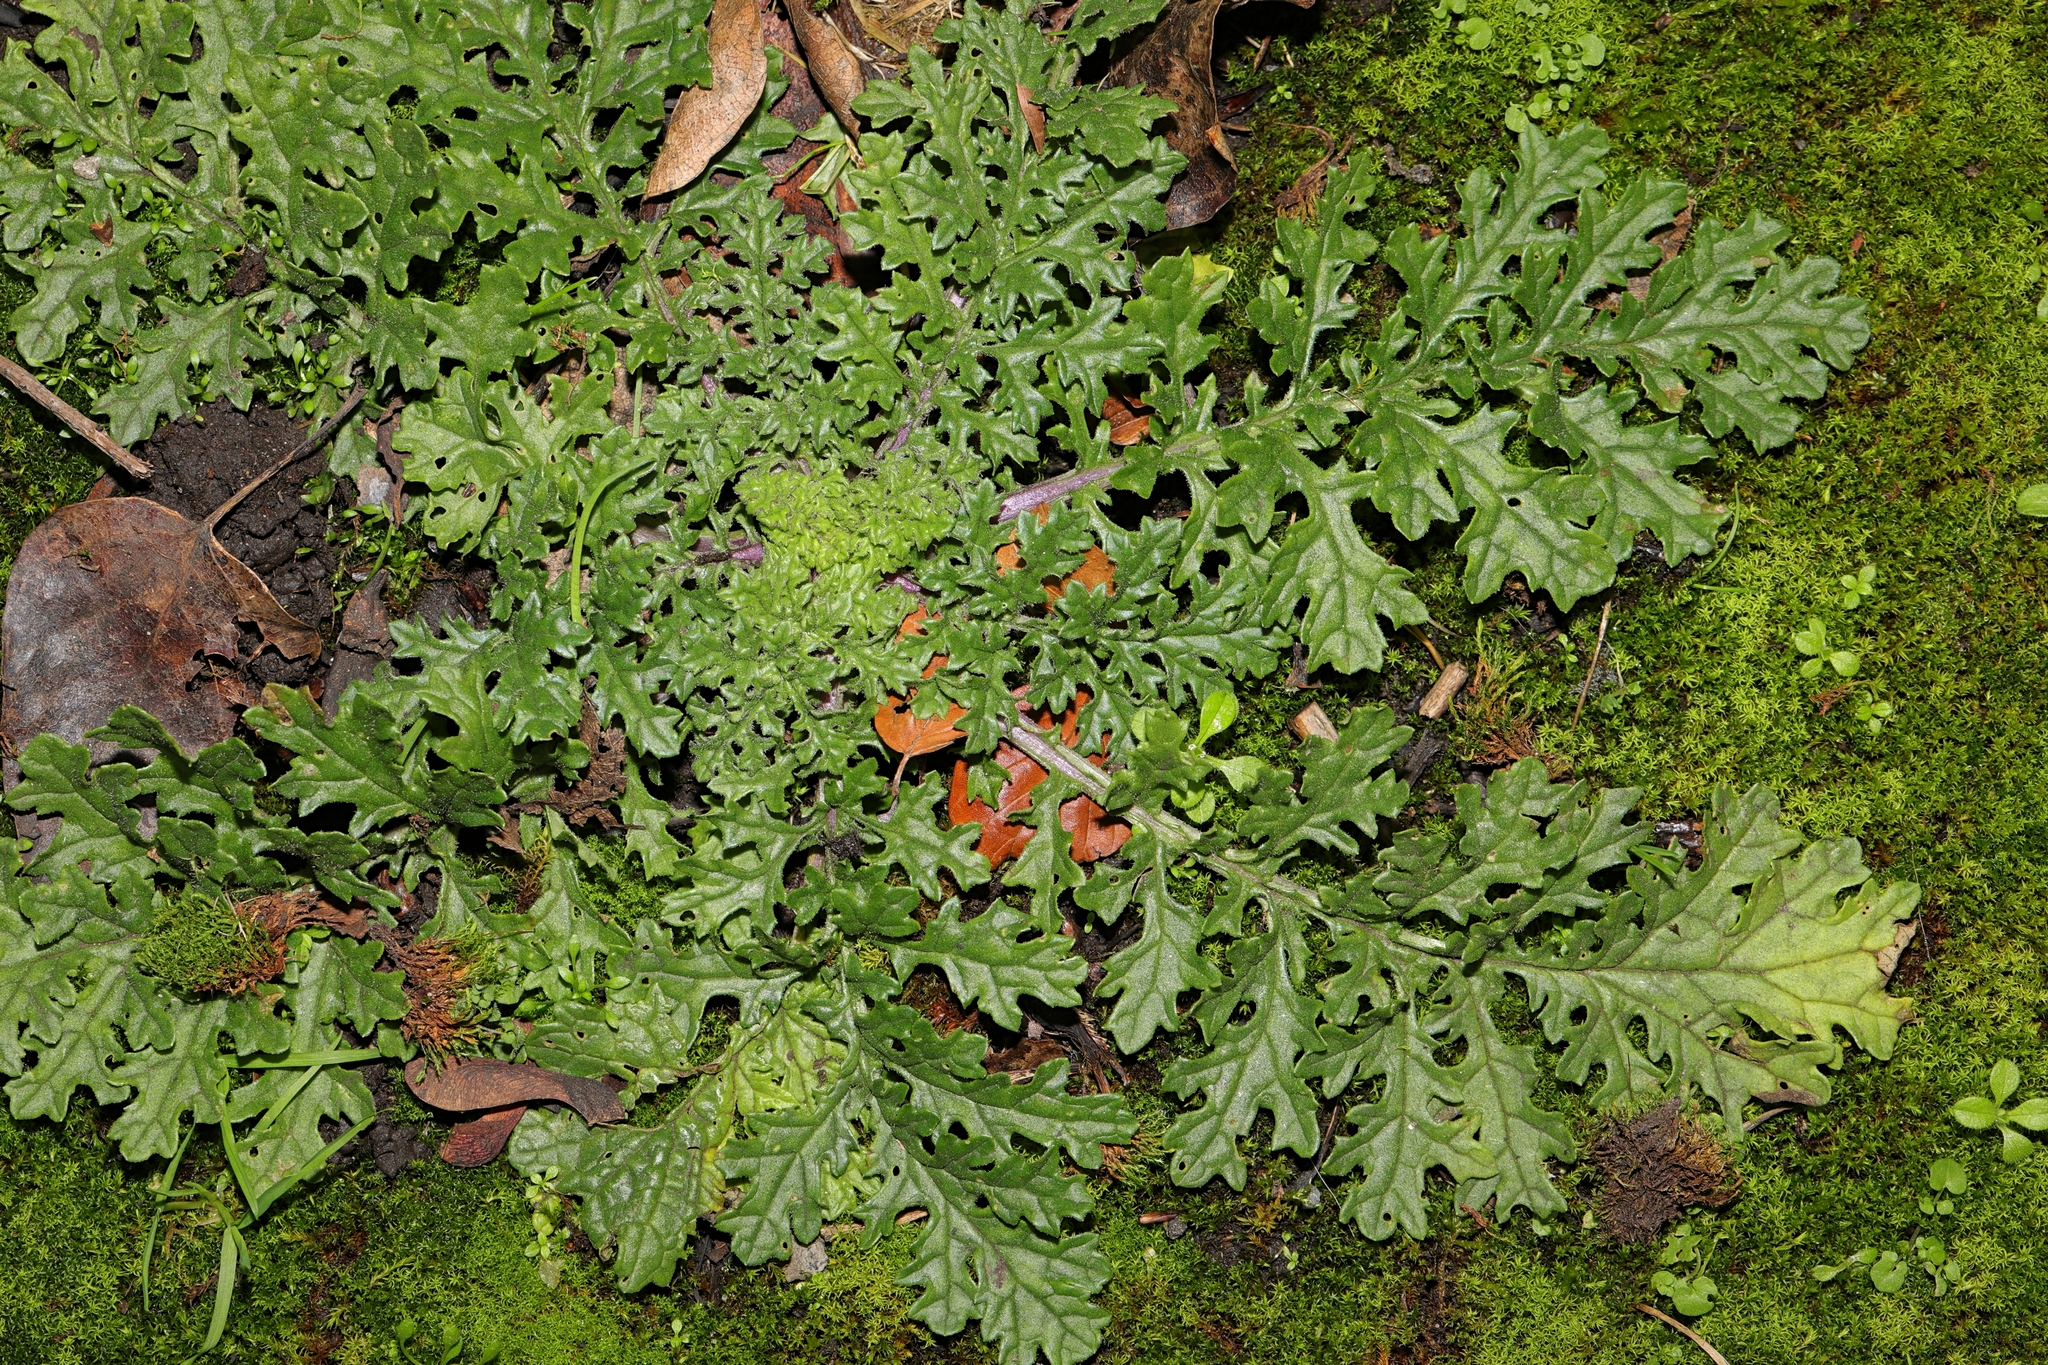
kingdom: Plantae
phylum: Tracheophyta
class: Magnoliopsida
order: Asterales
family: Asteraceae
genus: Jacobaea
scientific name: Jacobaea vulgaris
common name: Stinking willie
